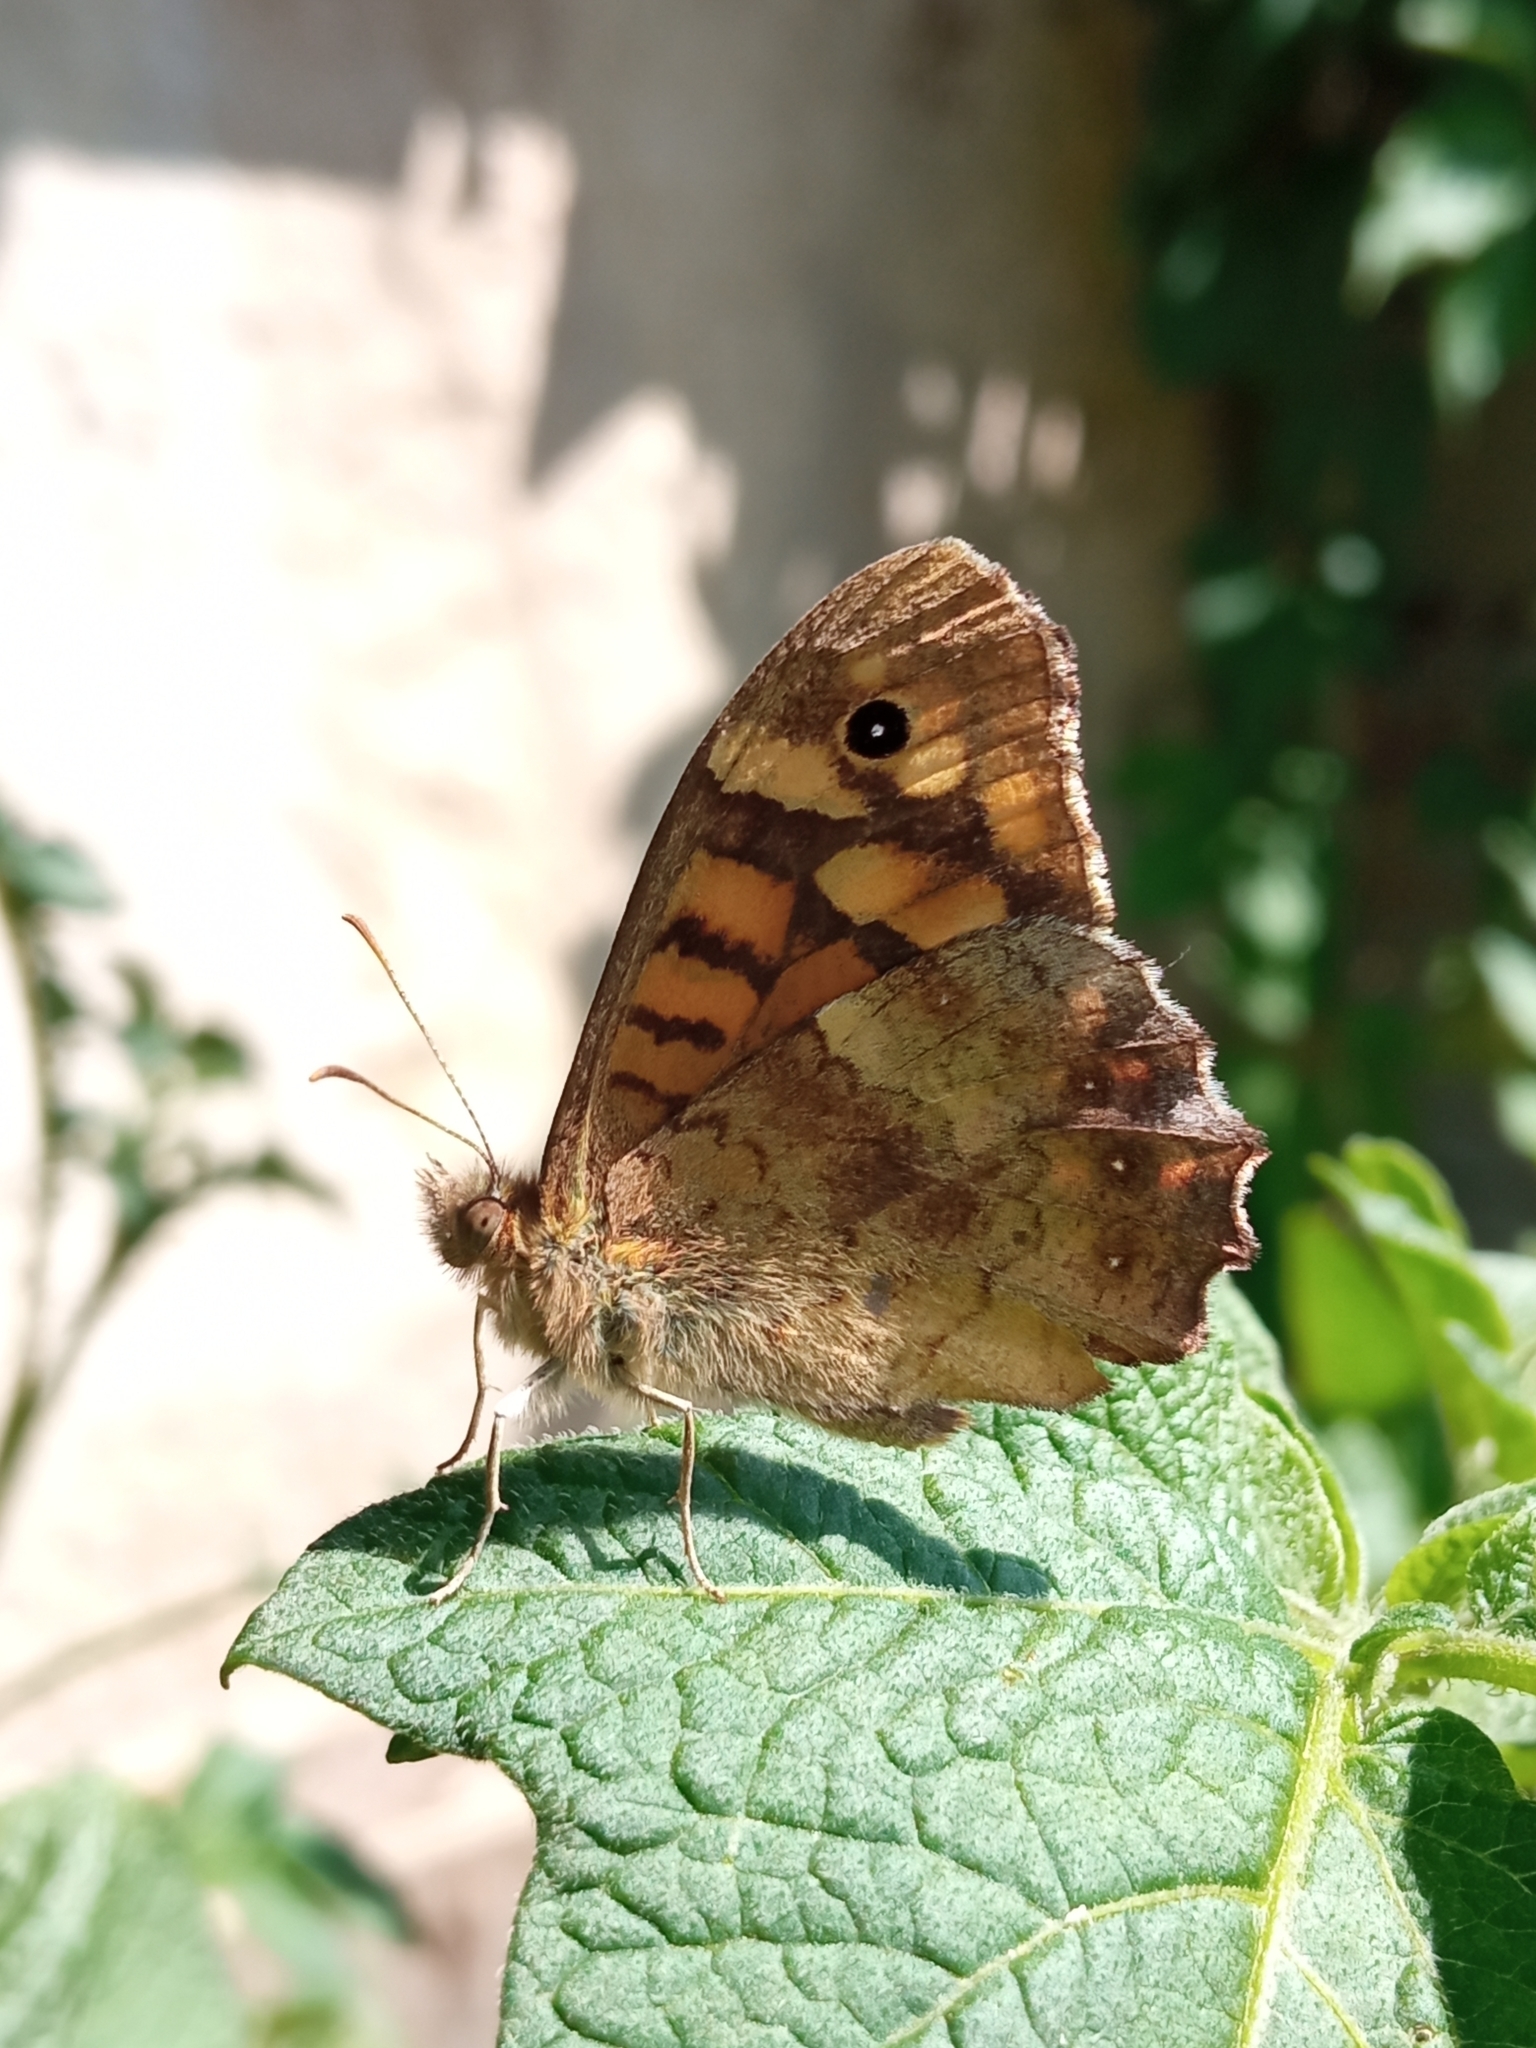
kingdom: Animalia
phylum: Arthropoda
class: Insecta
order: Lepidoptera
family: Nymphalidae
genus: Pararge
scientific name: Pararge aegeria
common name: Speckled wood
